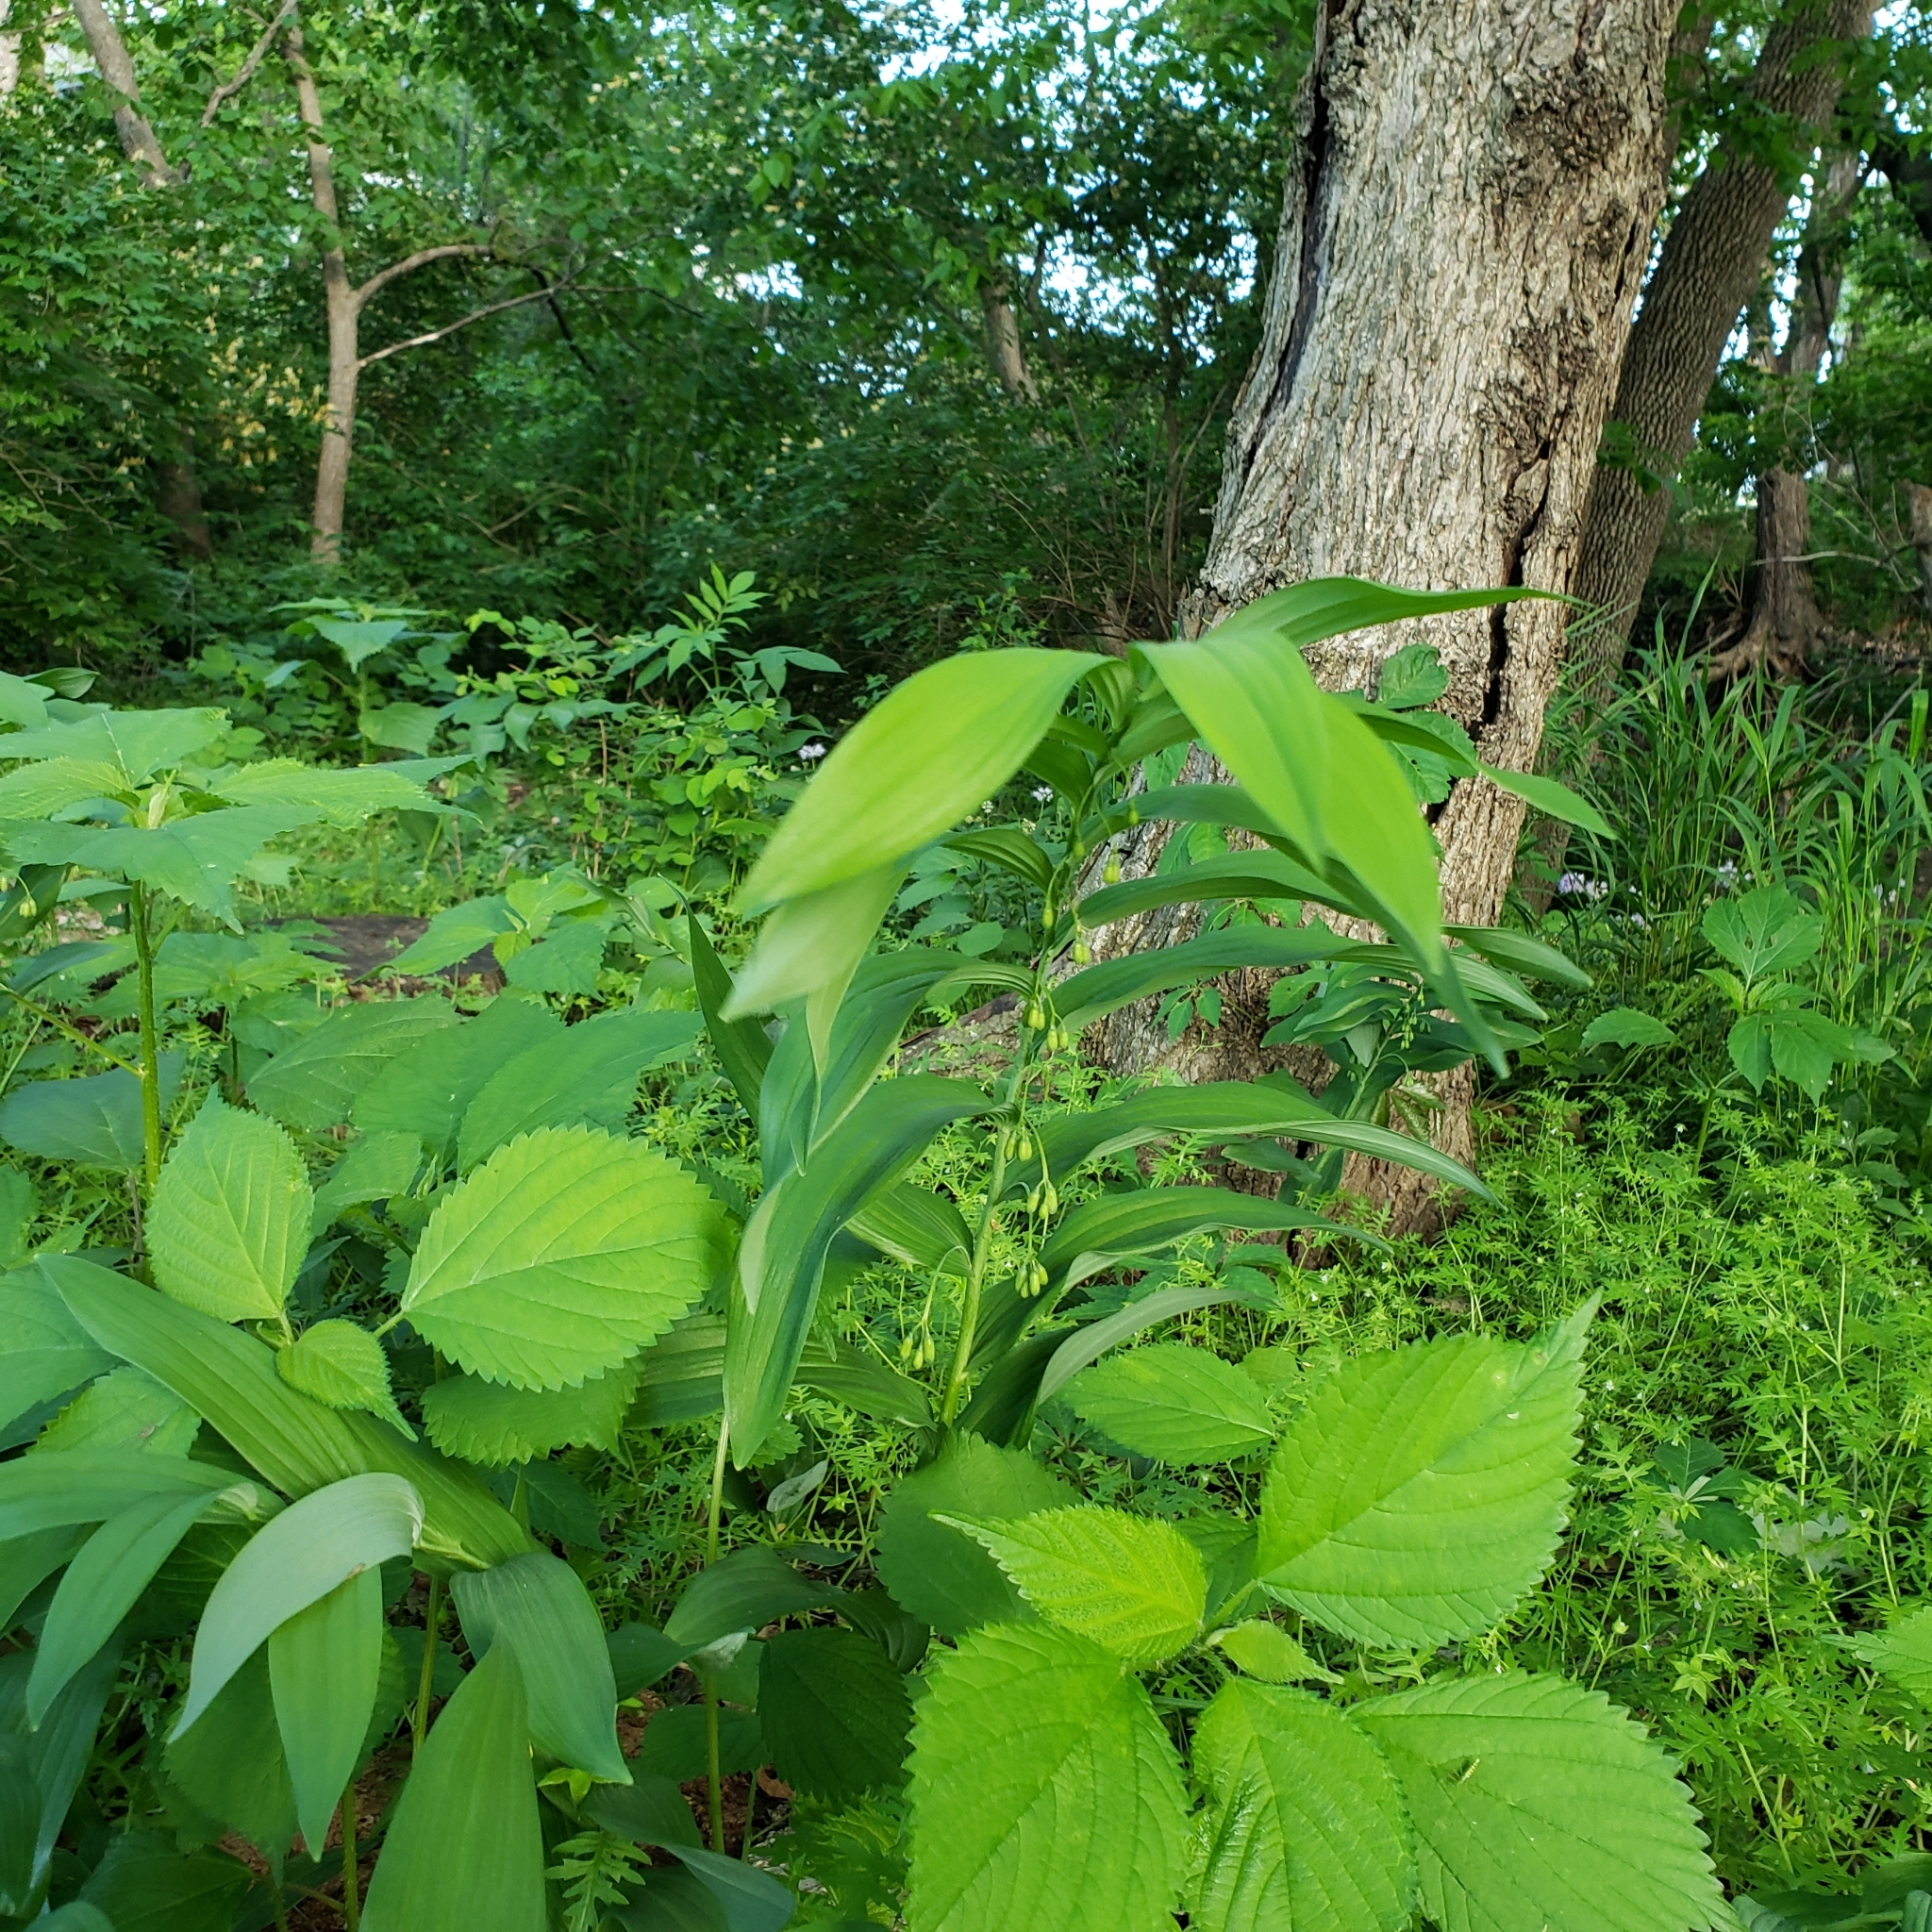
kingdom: Plantae
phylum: Tracheophyta
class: Liliopsida
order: Asparagales
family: Asparagaceae
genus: Polygonatum
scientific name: Polygonatum biflorum
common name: American solomon's-seal
